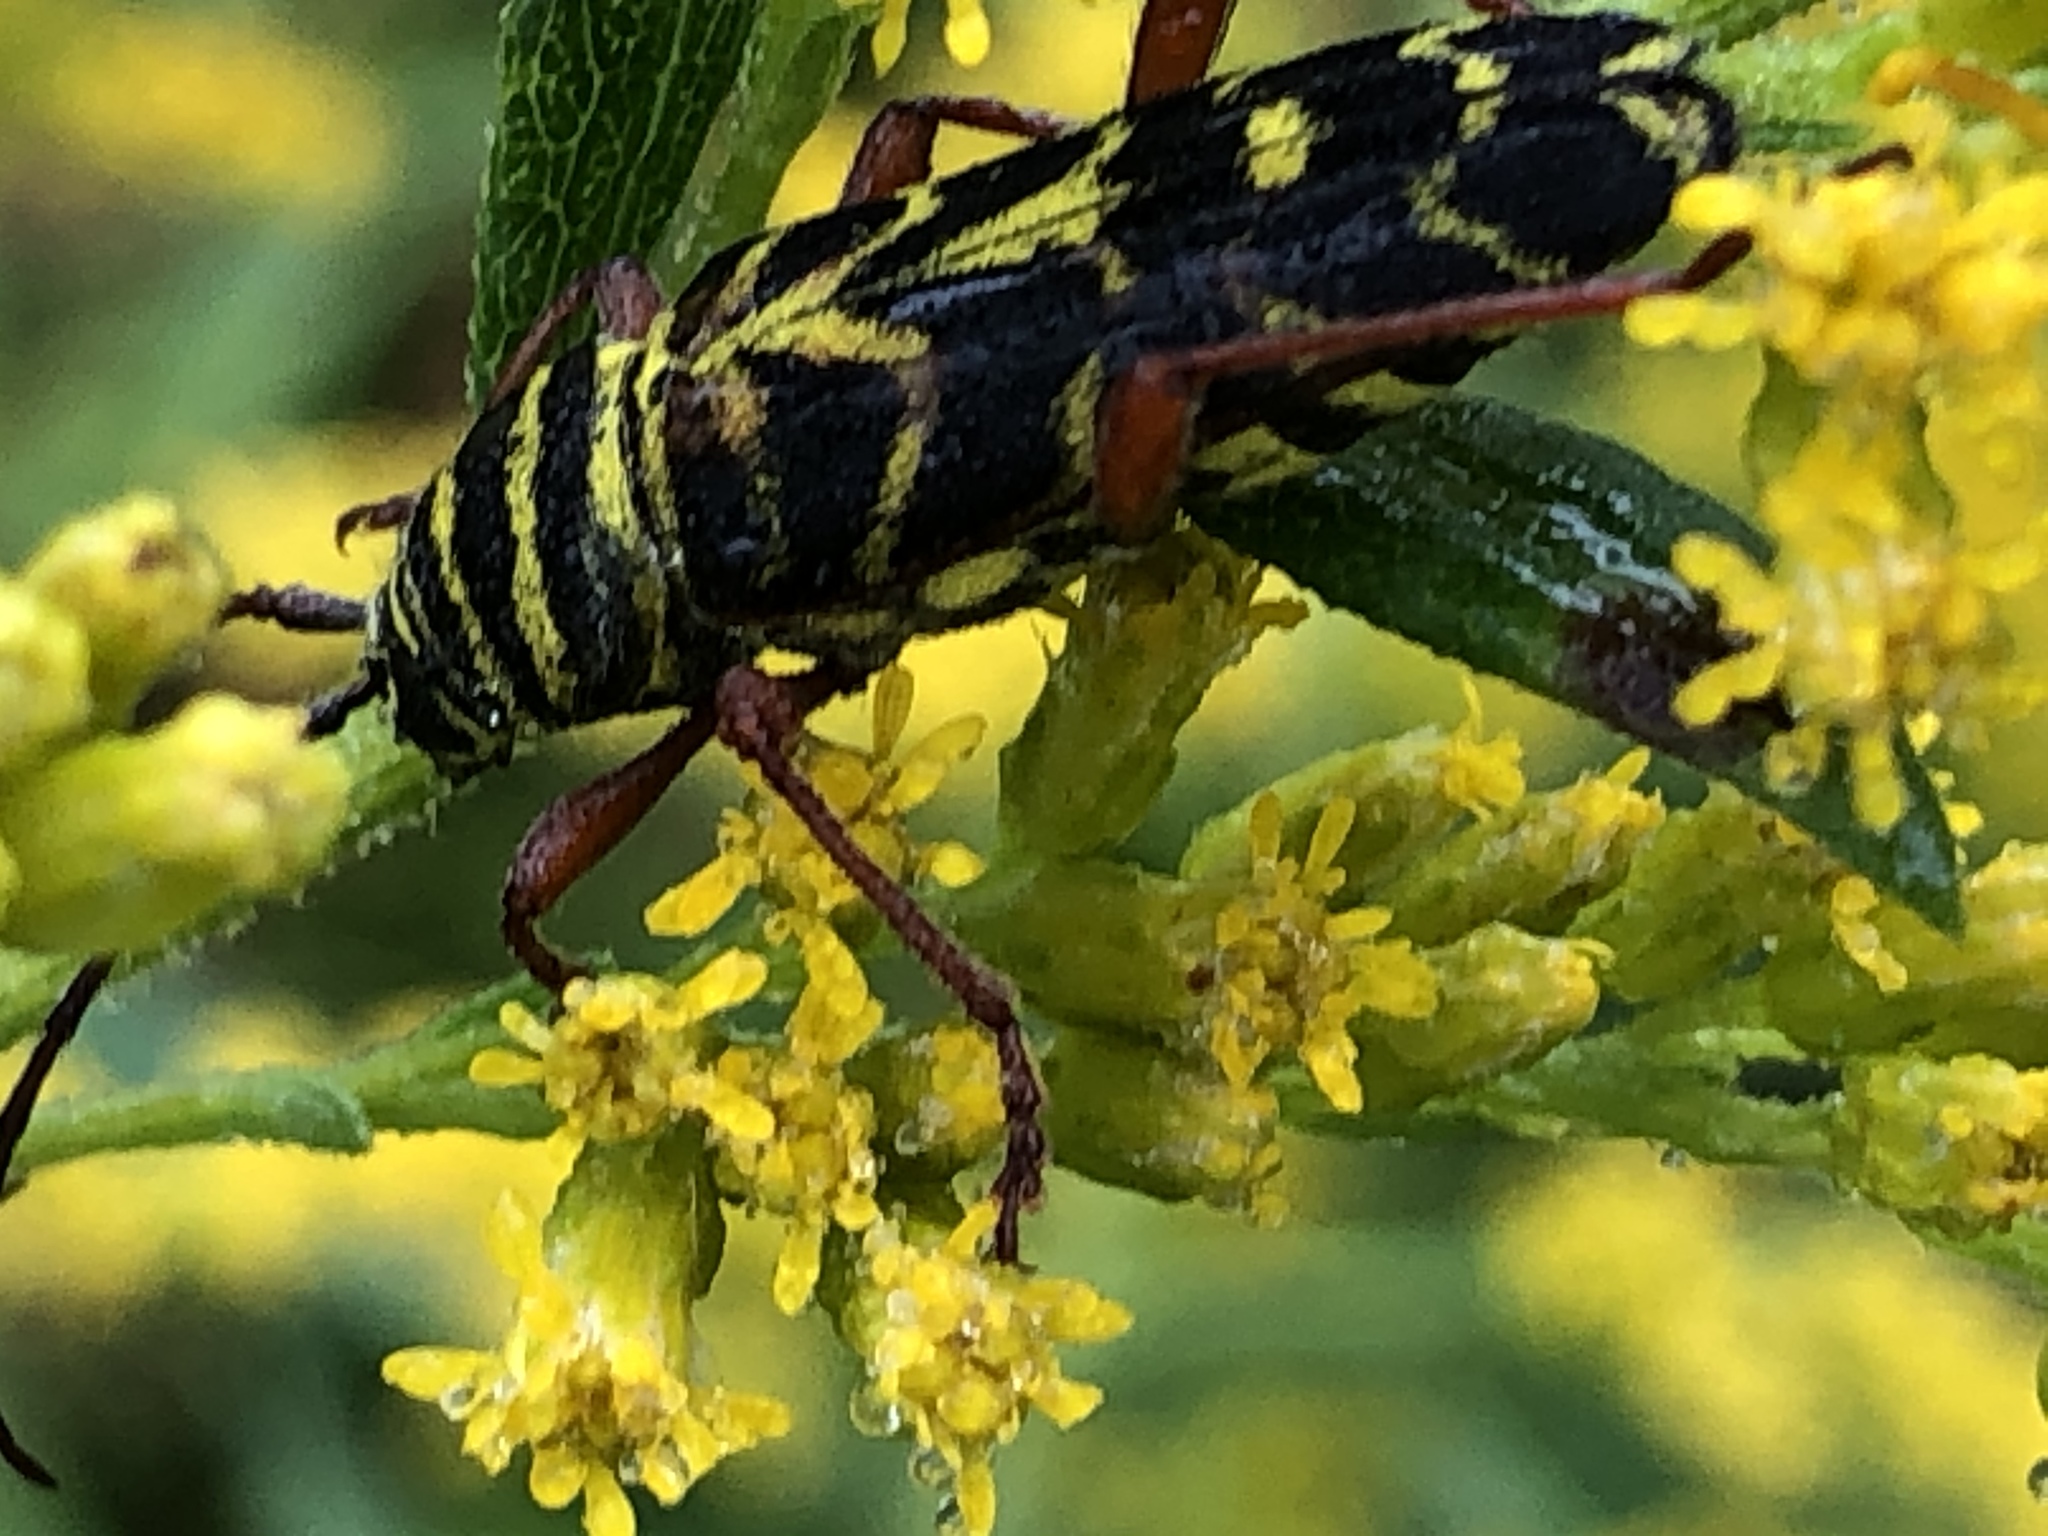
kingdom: Animalia
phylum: Arthropoda
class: Insecta
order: Coleoptera
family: Cerambycidae
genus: Megacyllene
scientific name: Megacyllene robiniae
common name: Locust borer
